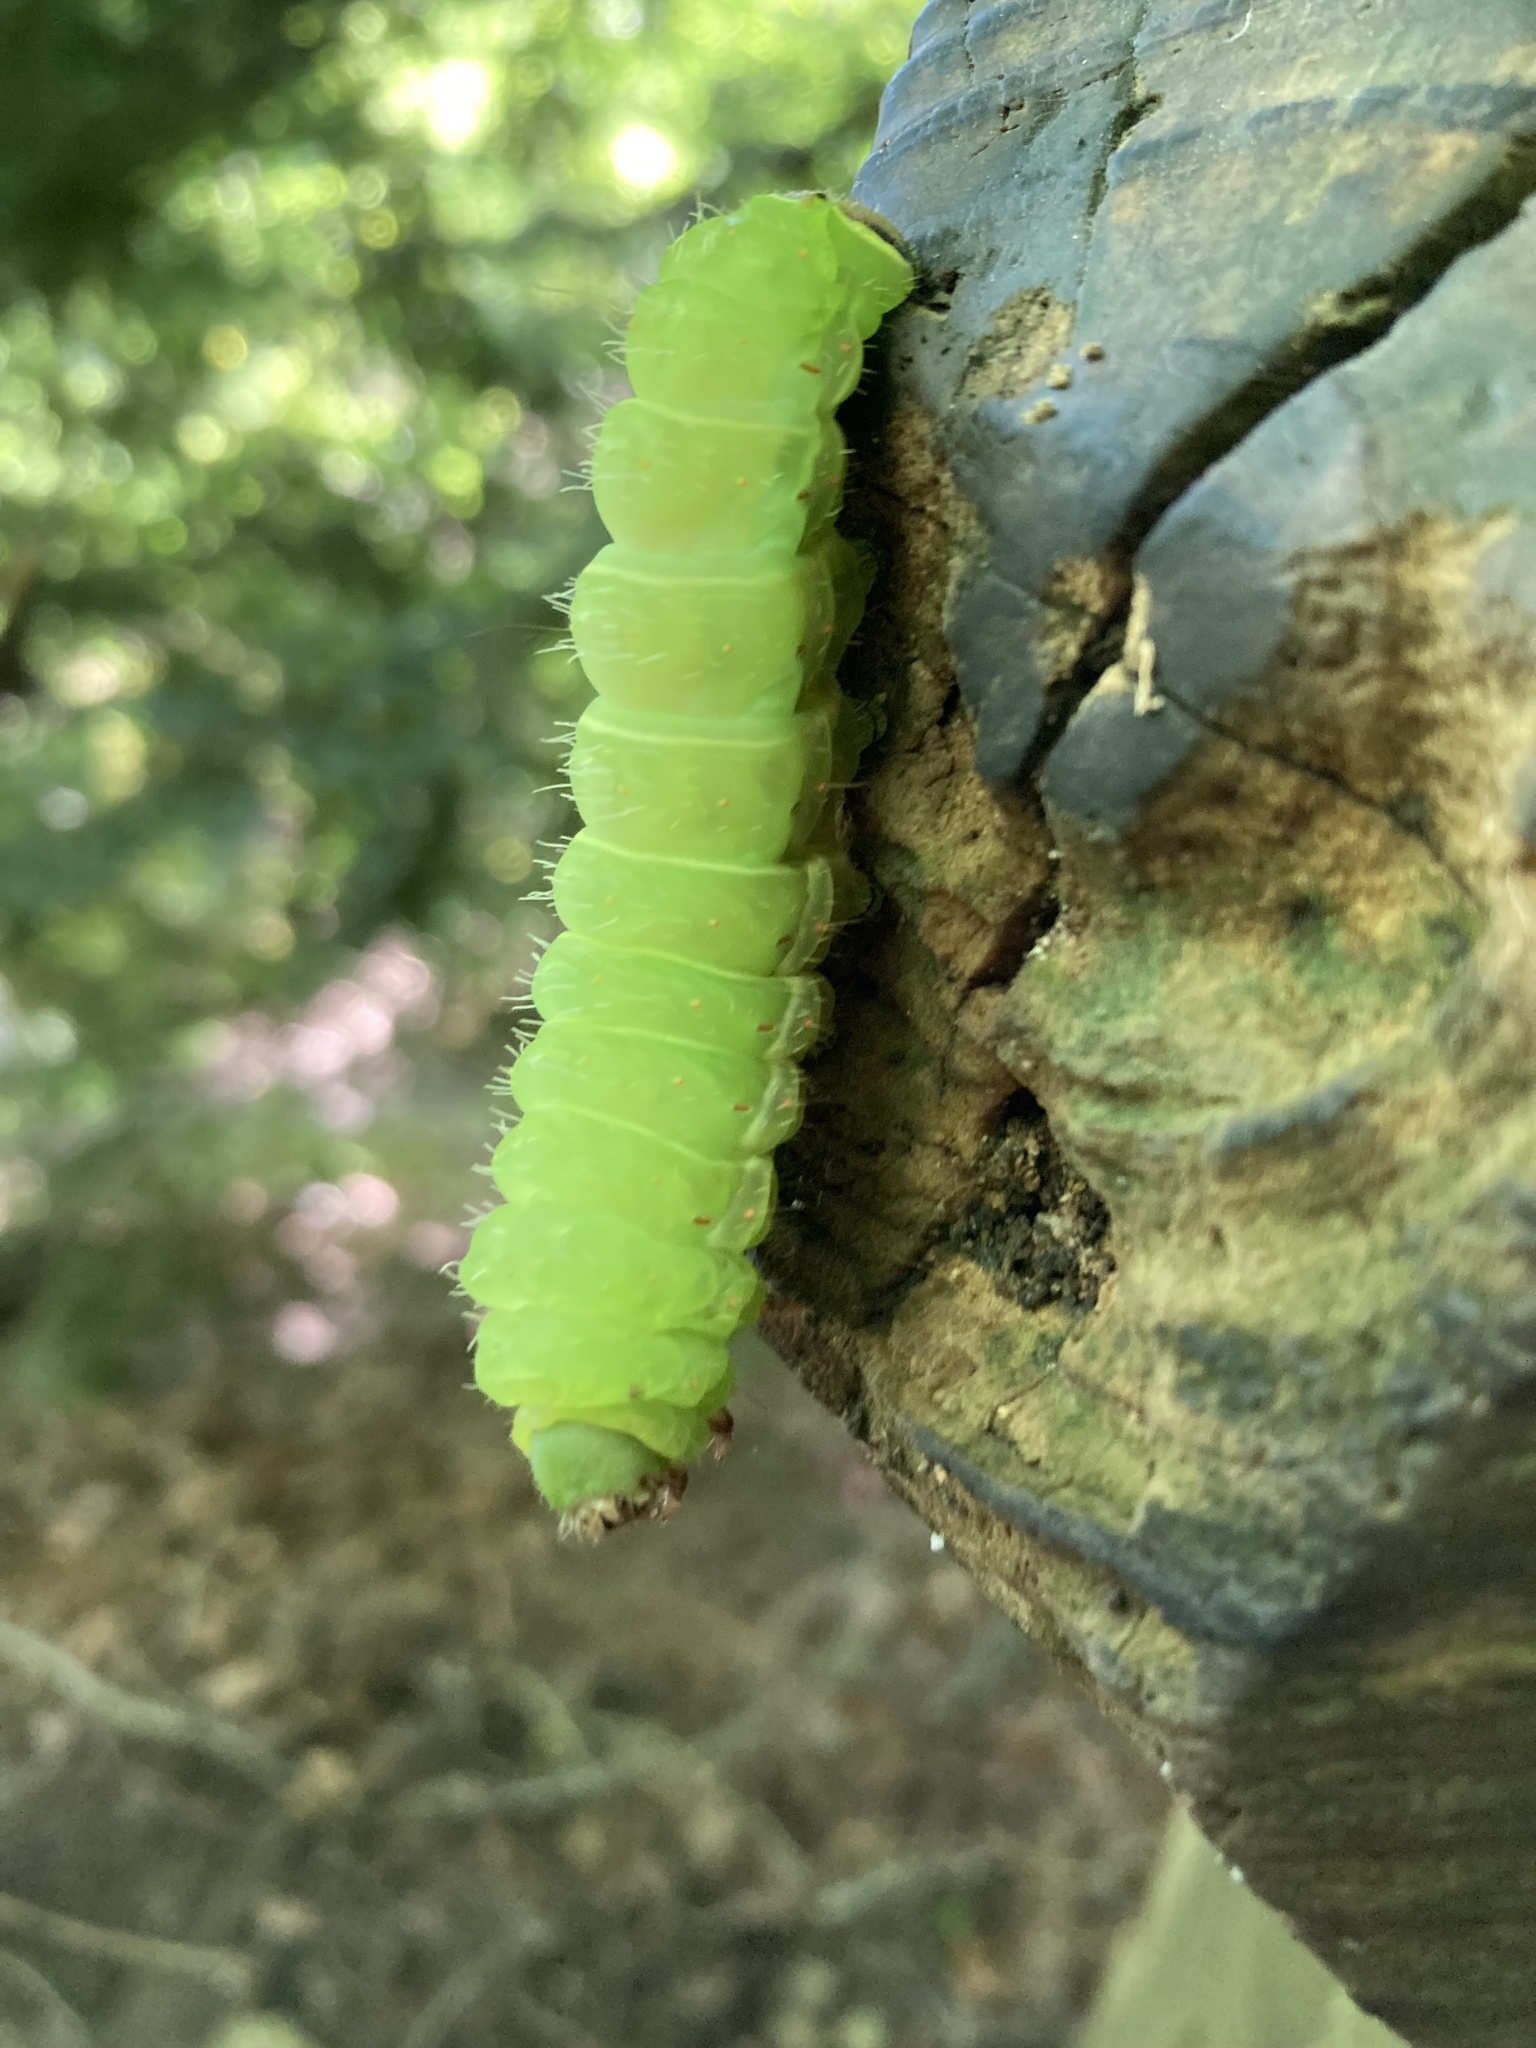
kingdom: Animalia
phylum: Arthropoda
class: Insecta
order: Lepidoptera
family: Saturniidae
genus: Actias
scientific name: Actias luna
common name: Luna moth
